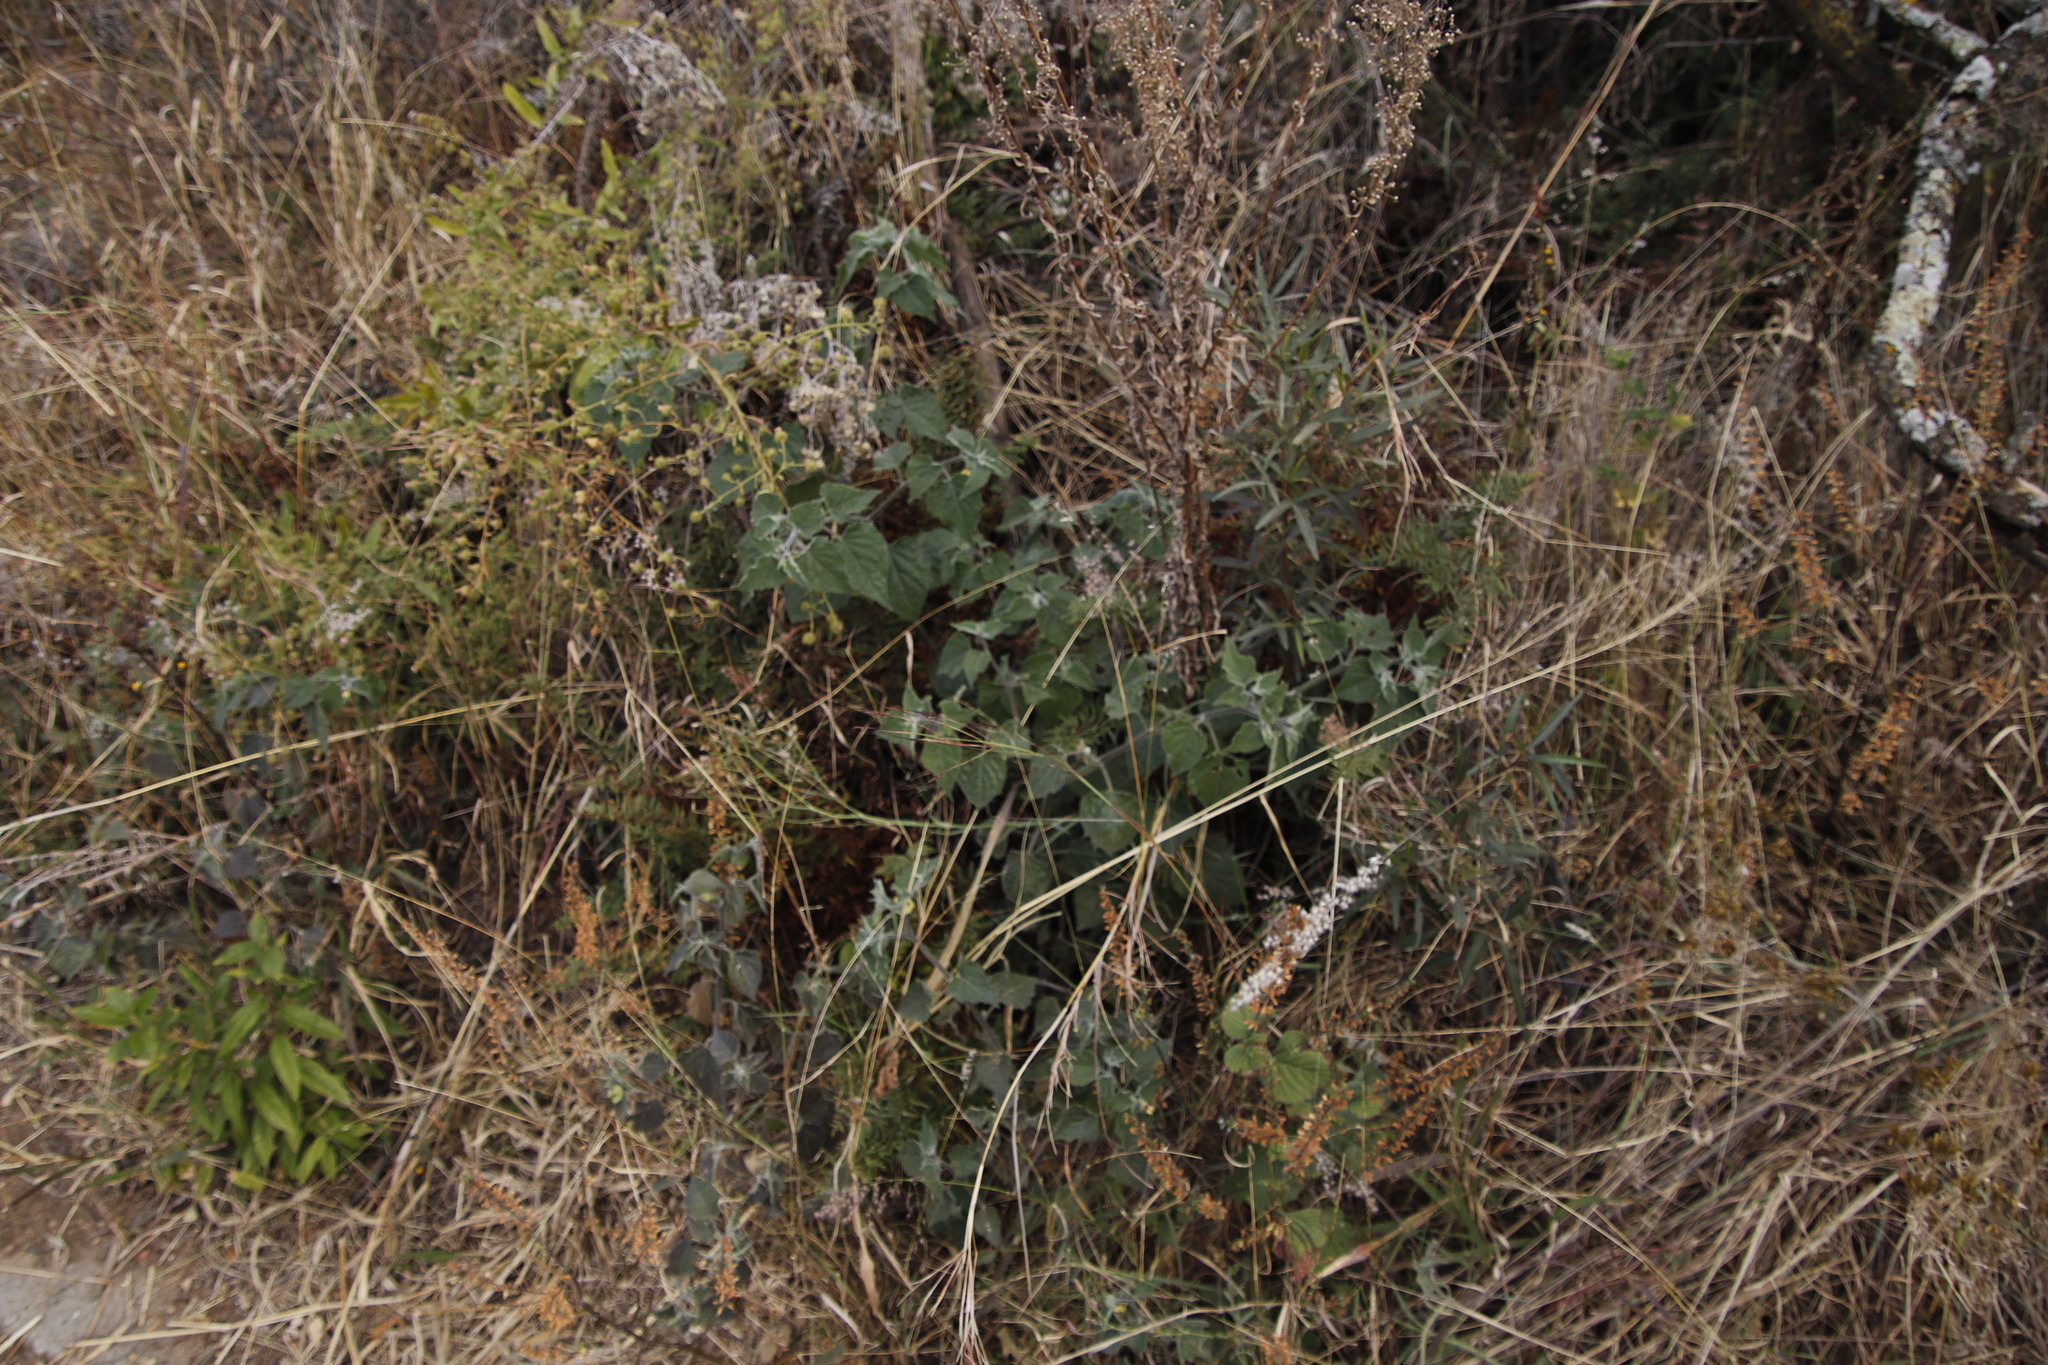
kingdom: Plantae
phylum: Tracheophyta
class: Magnoliopsida
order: Solanales
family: Solanaceae
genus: Physalis
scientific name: Physalis peruviana
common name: Cape-gooseberry
